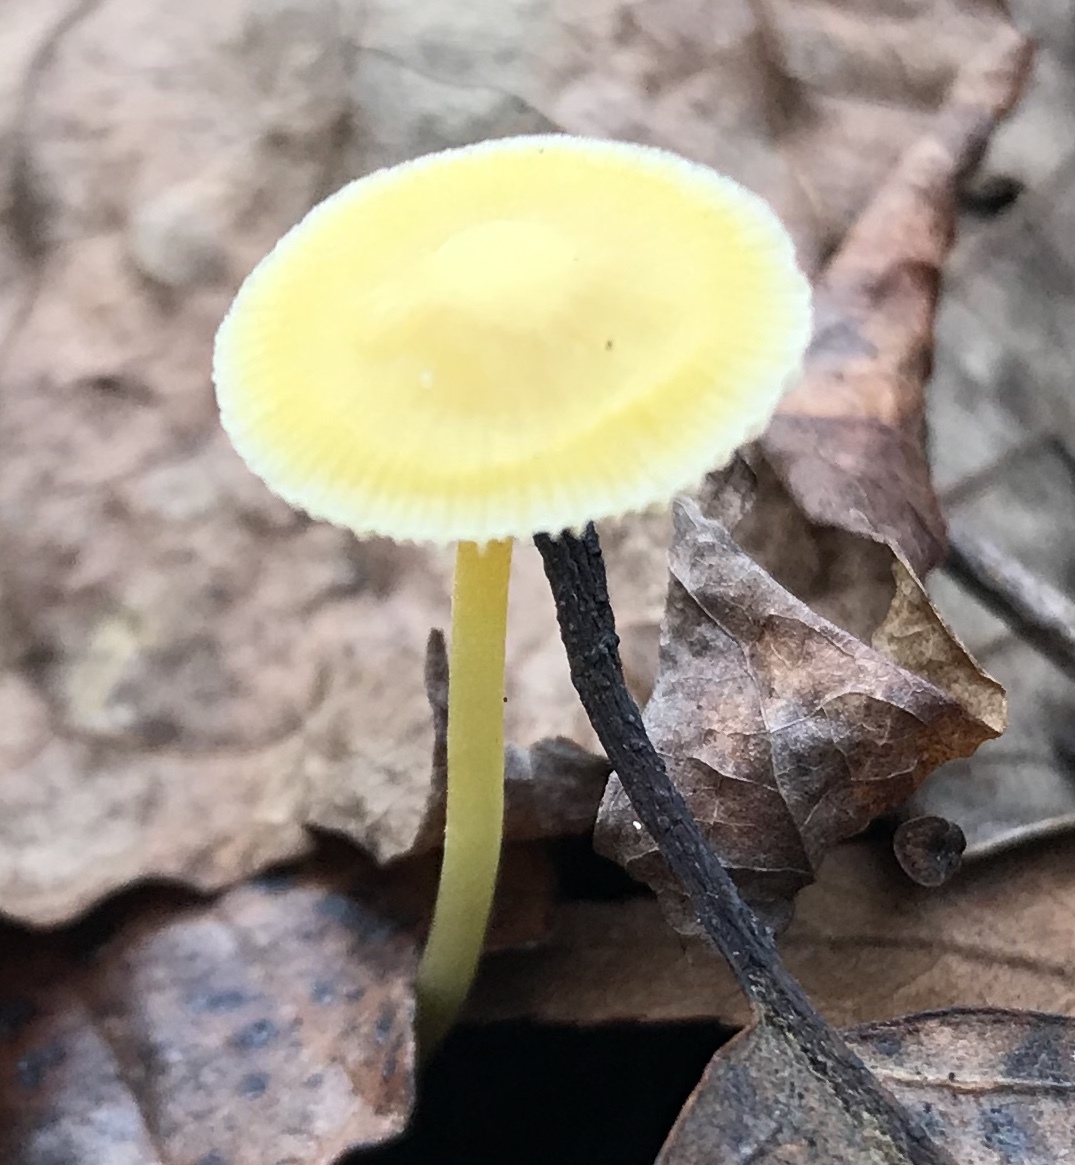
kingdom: Fungi
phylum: Basidiomycota
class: Agaricomycetes
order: Agaricales
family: Mycenaceae
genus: Mycena
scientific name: Mycena crocea
